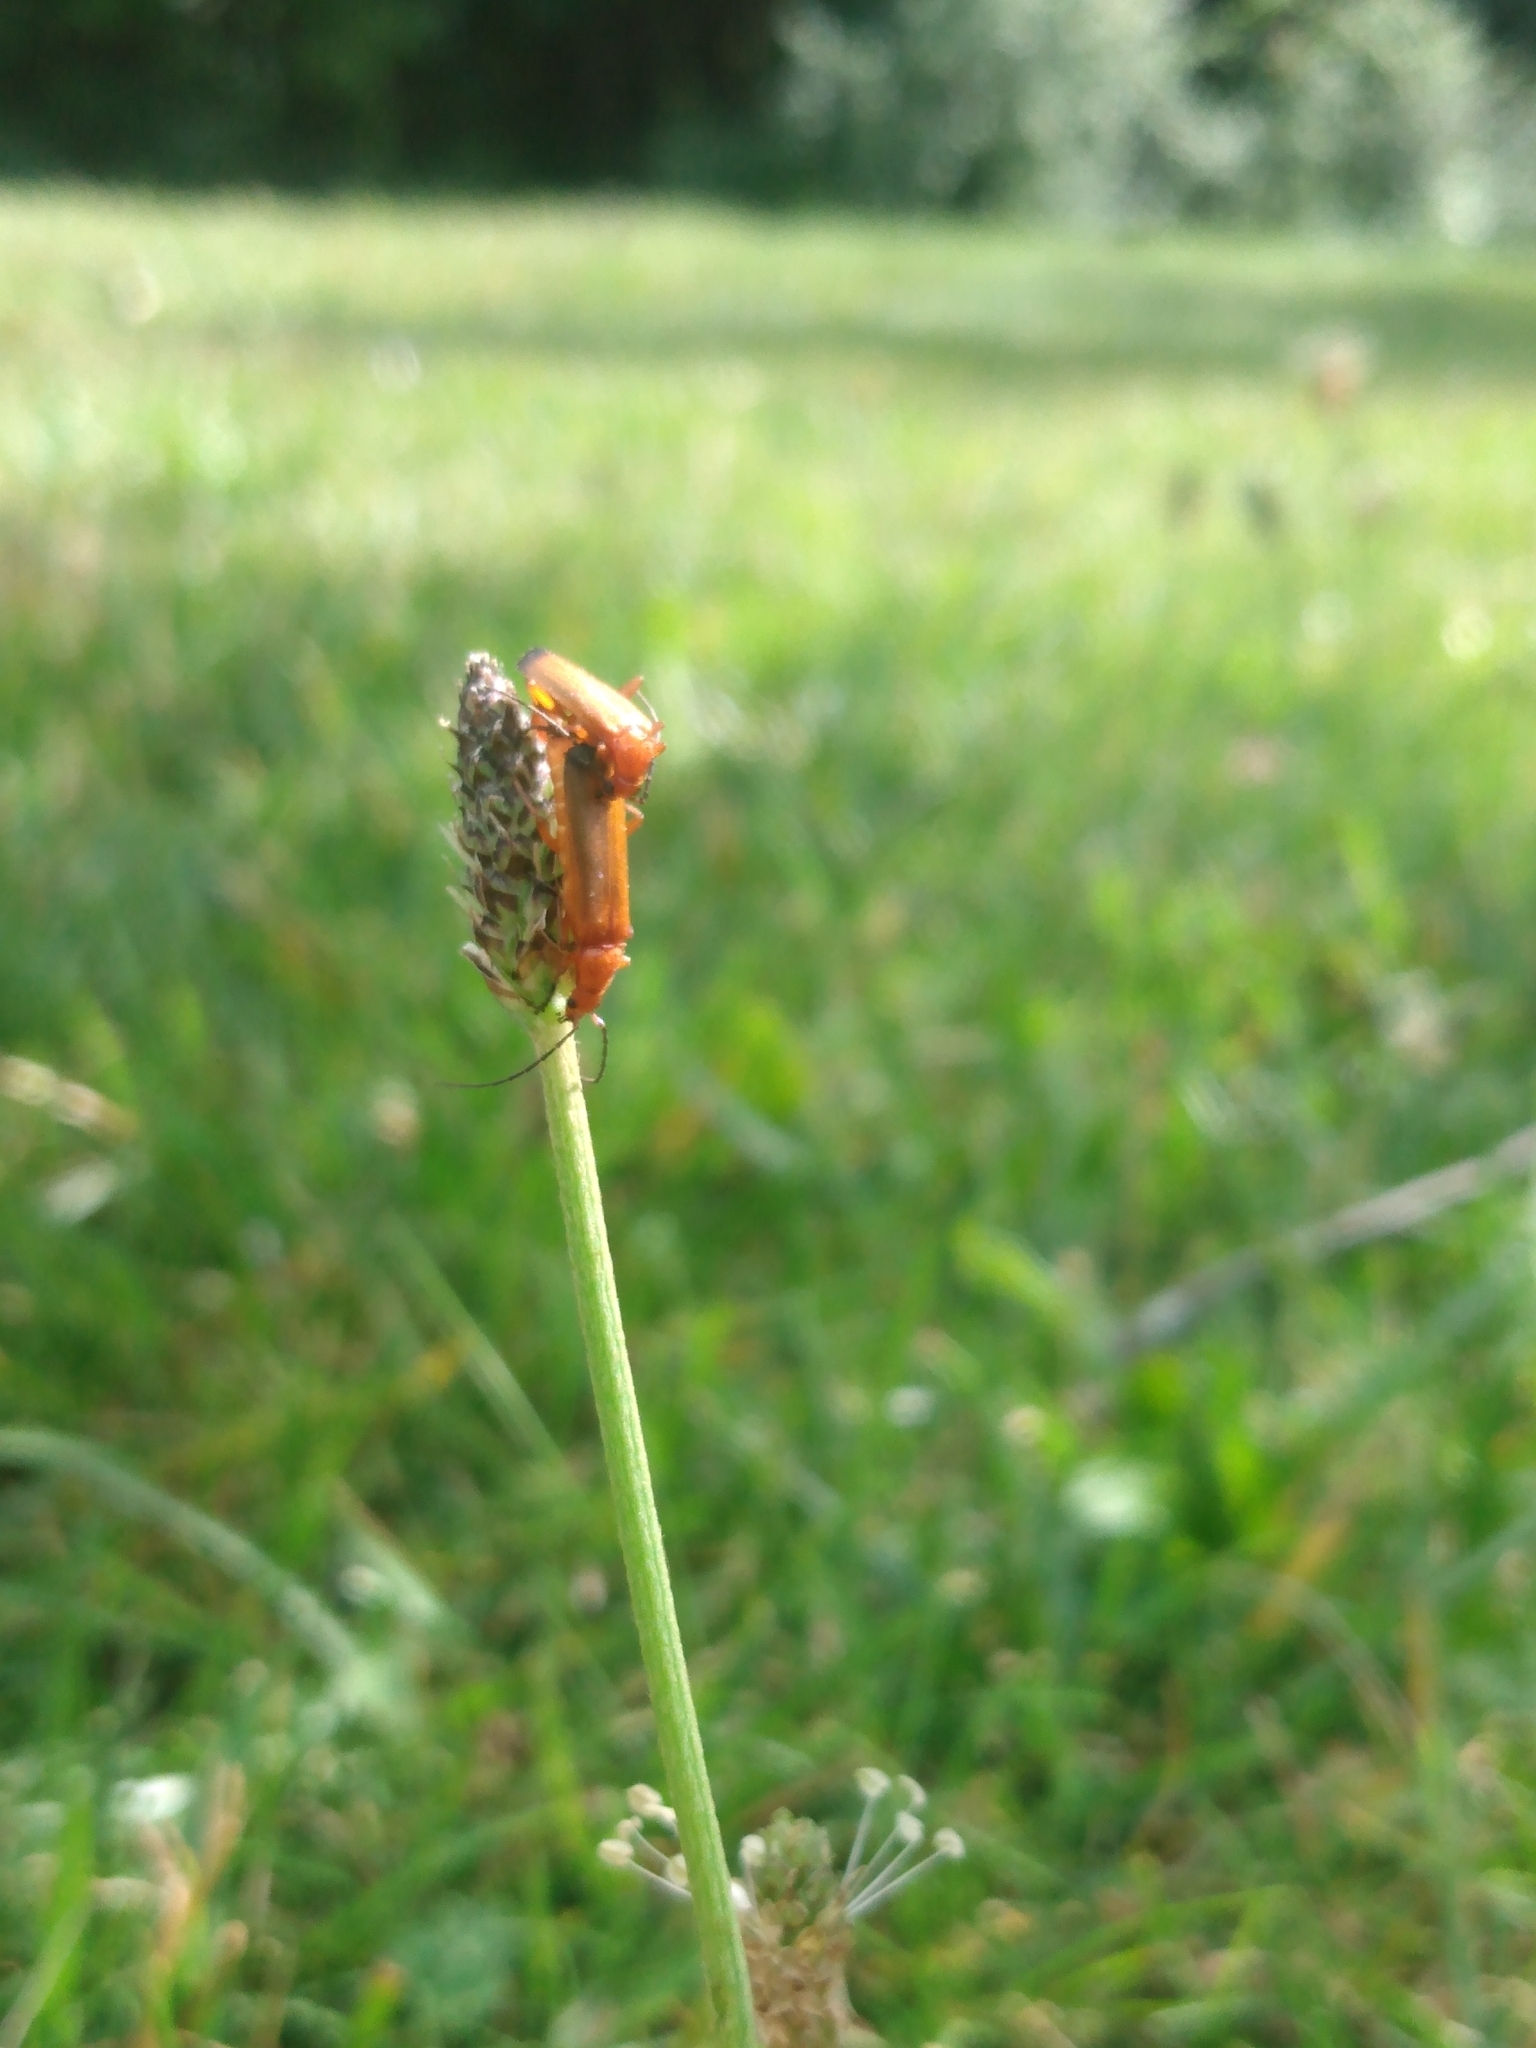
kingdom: Animalia
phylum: Arthropoda
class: Insecta
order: Coleoptera
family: Cantharidae
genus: Rhagonycha
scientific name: Rhagonycha fulva
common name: Common red soldier beetle
